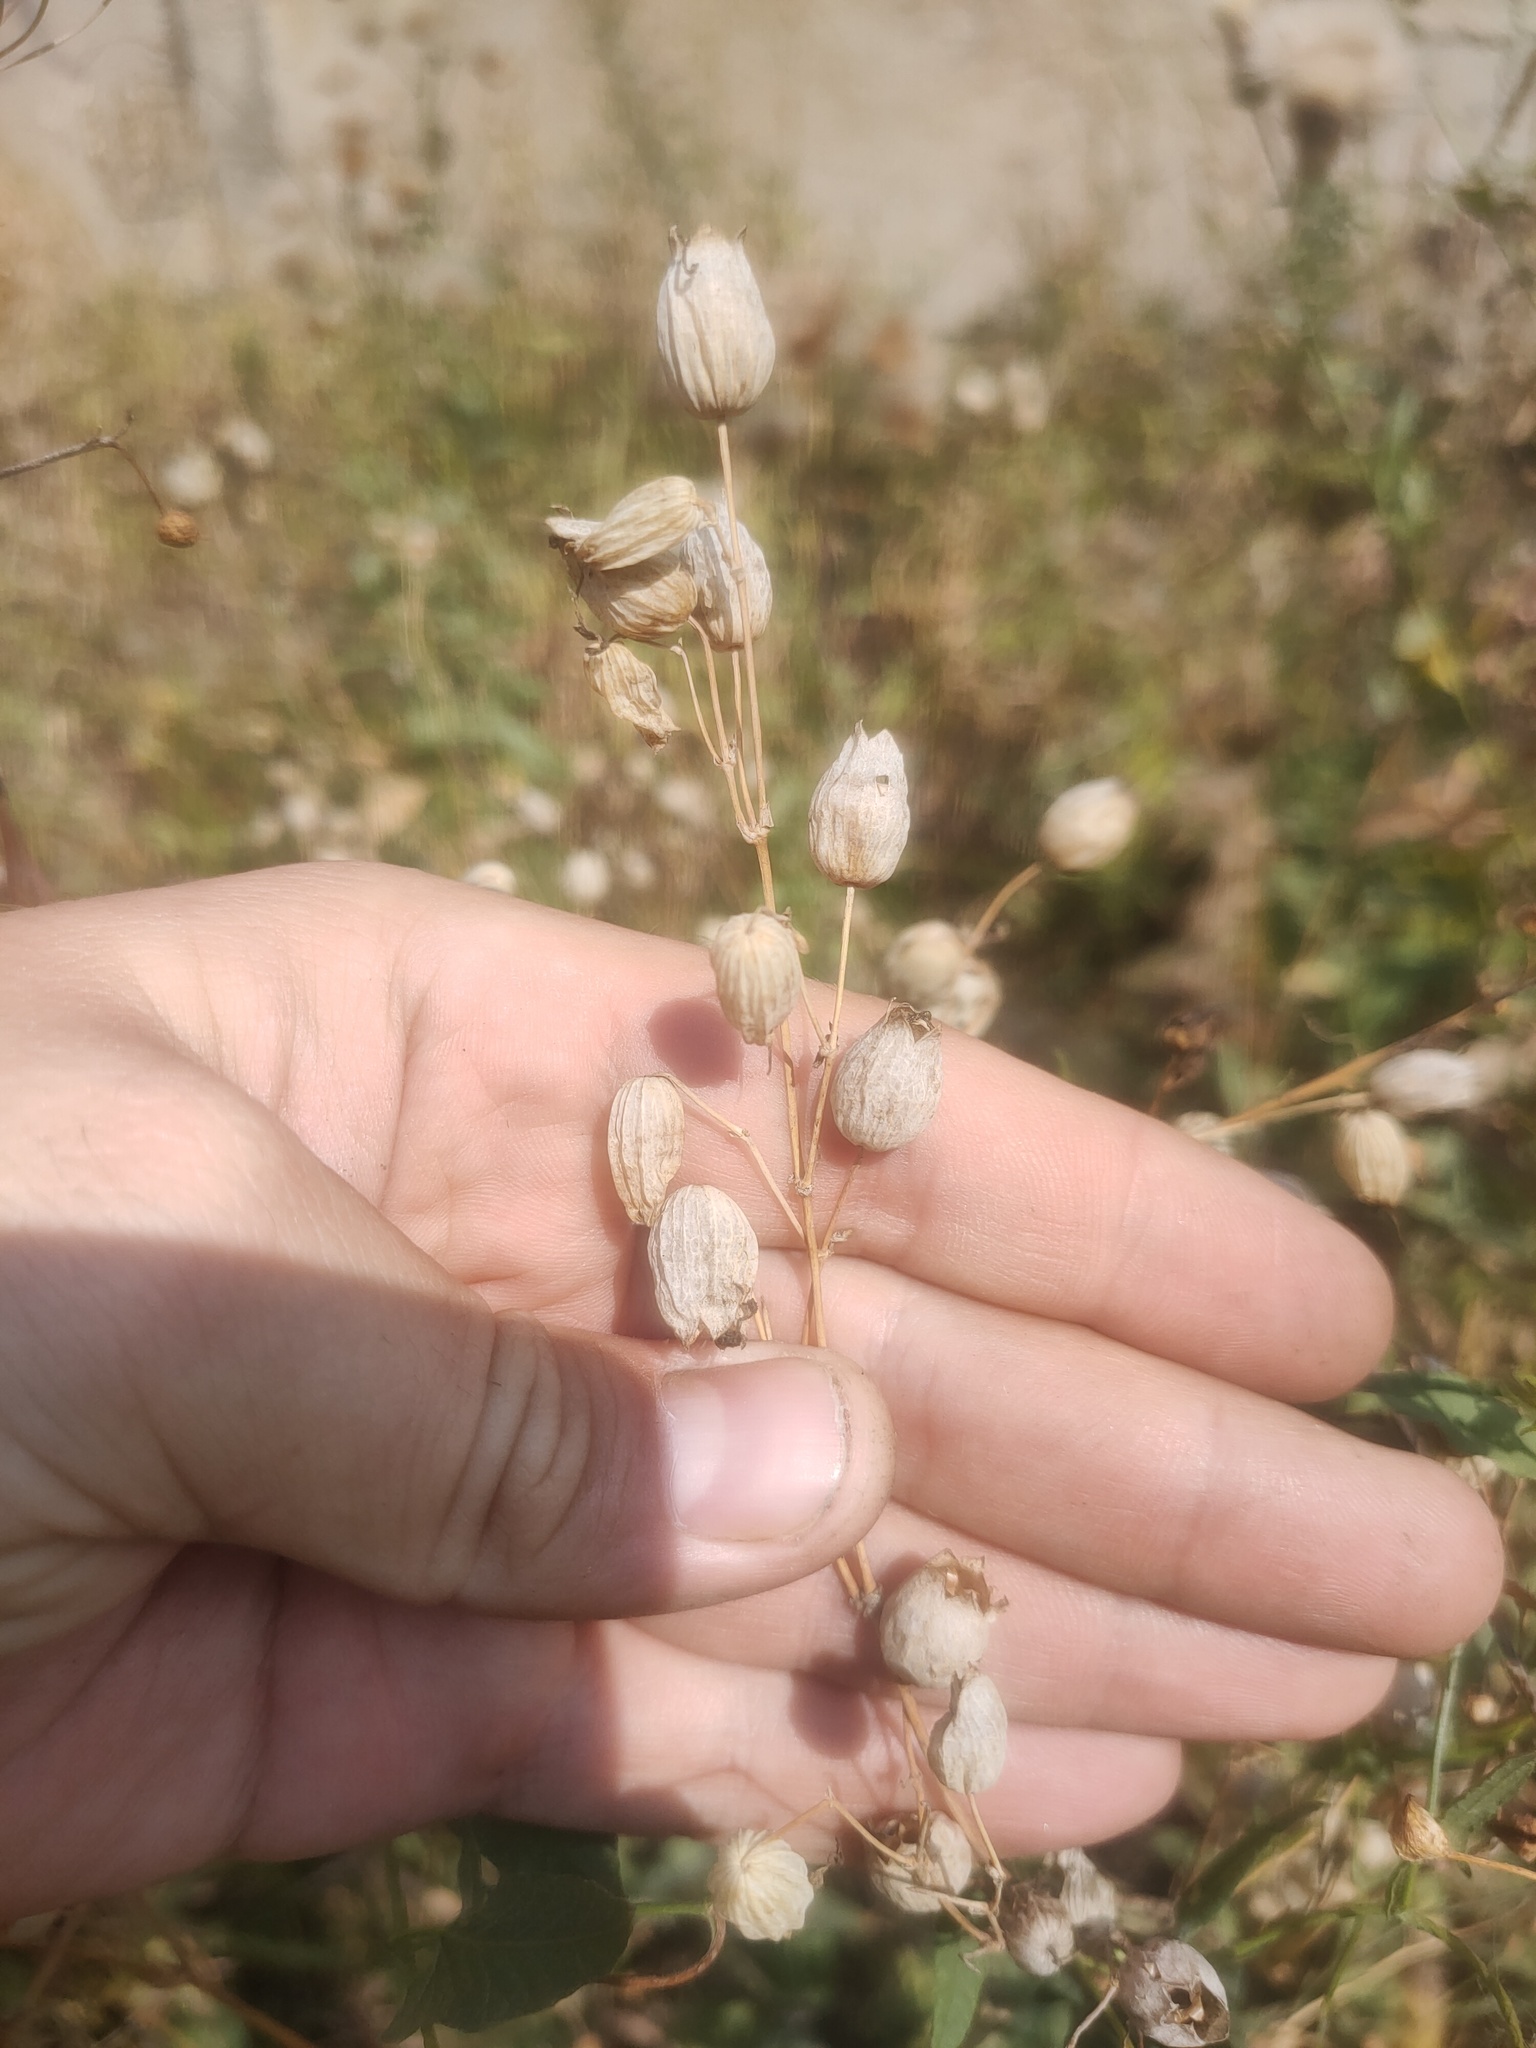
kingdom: Plantae
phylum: Tracheophyta
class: Magnoliopsida
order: Caryophyllales
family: Caryophyllaceae
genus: Silene
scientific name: Silene vulgaris
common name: Bladder campion
